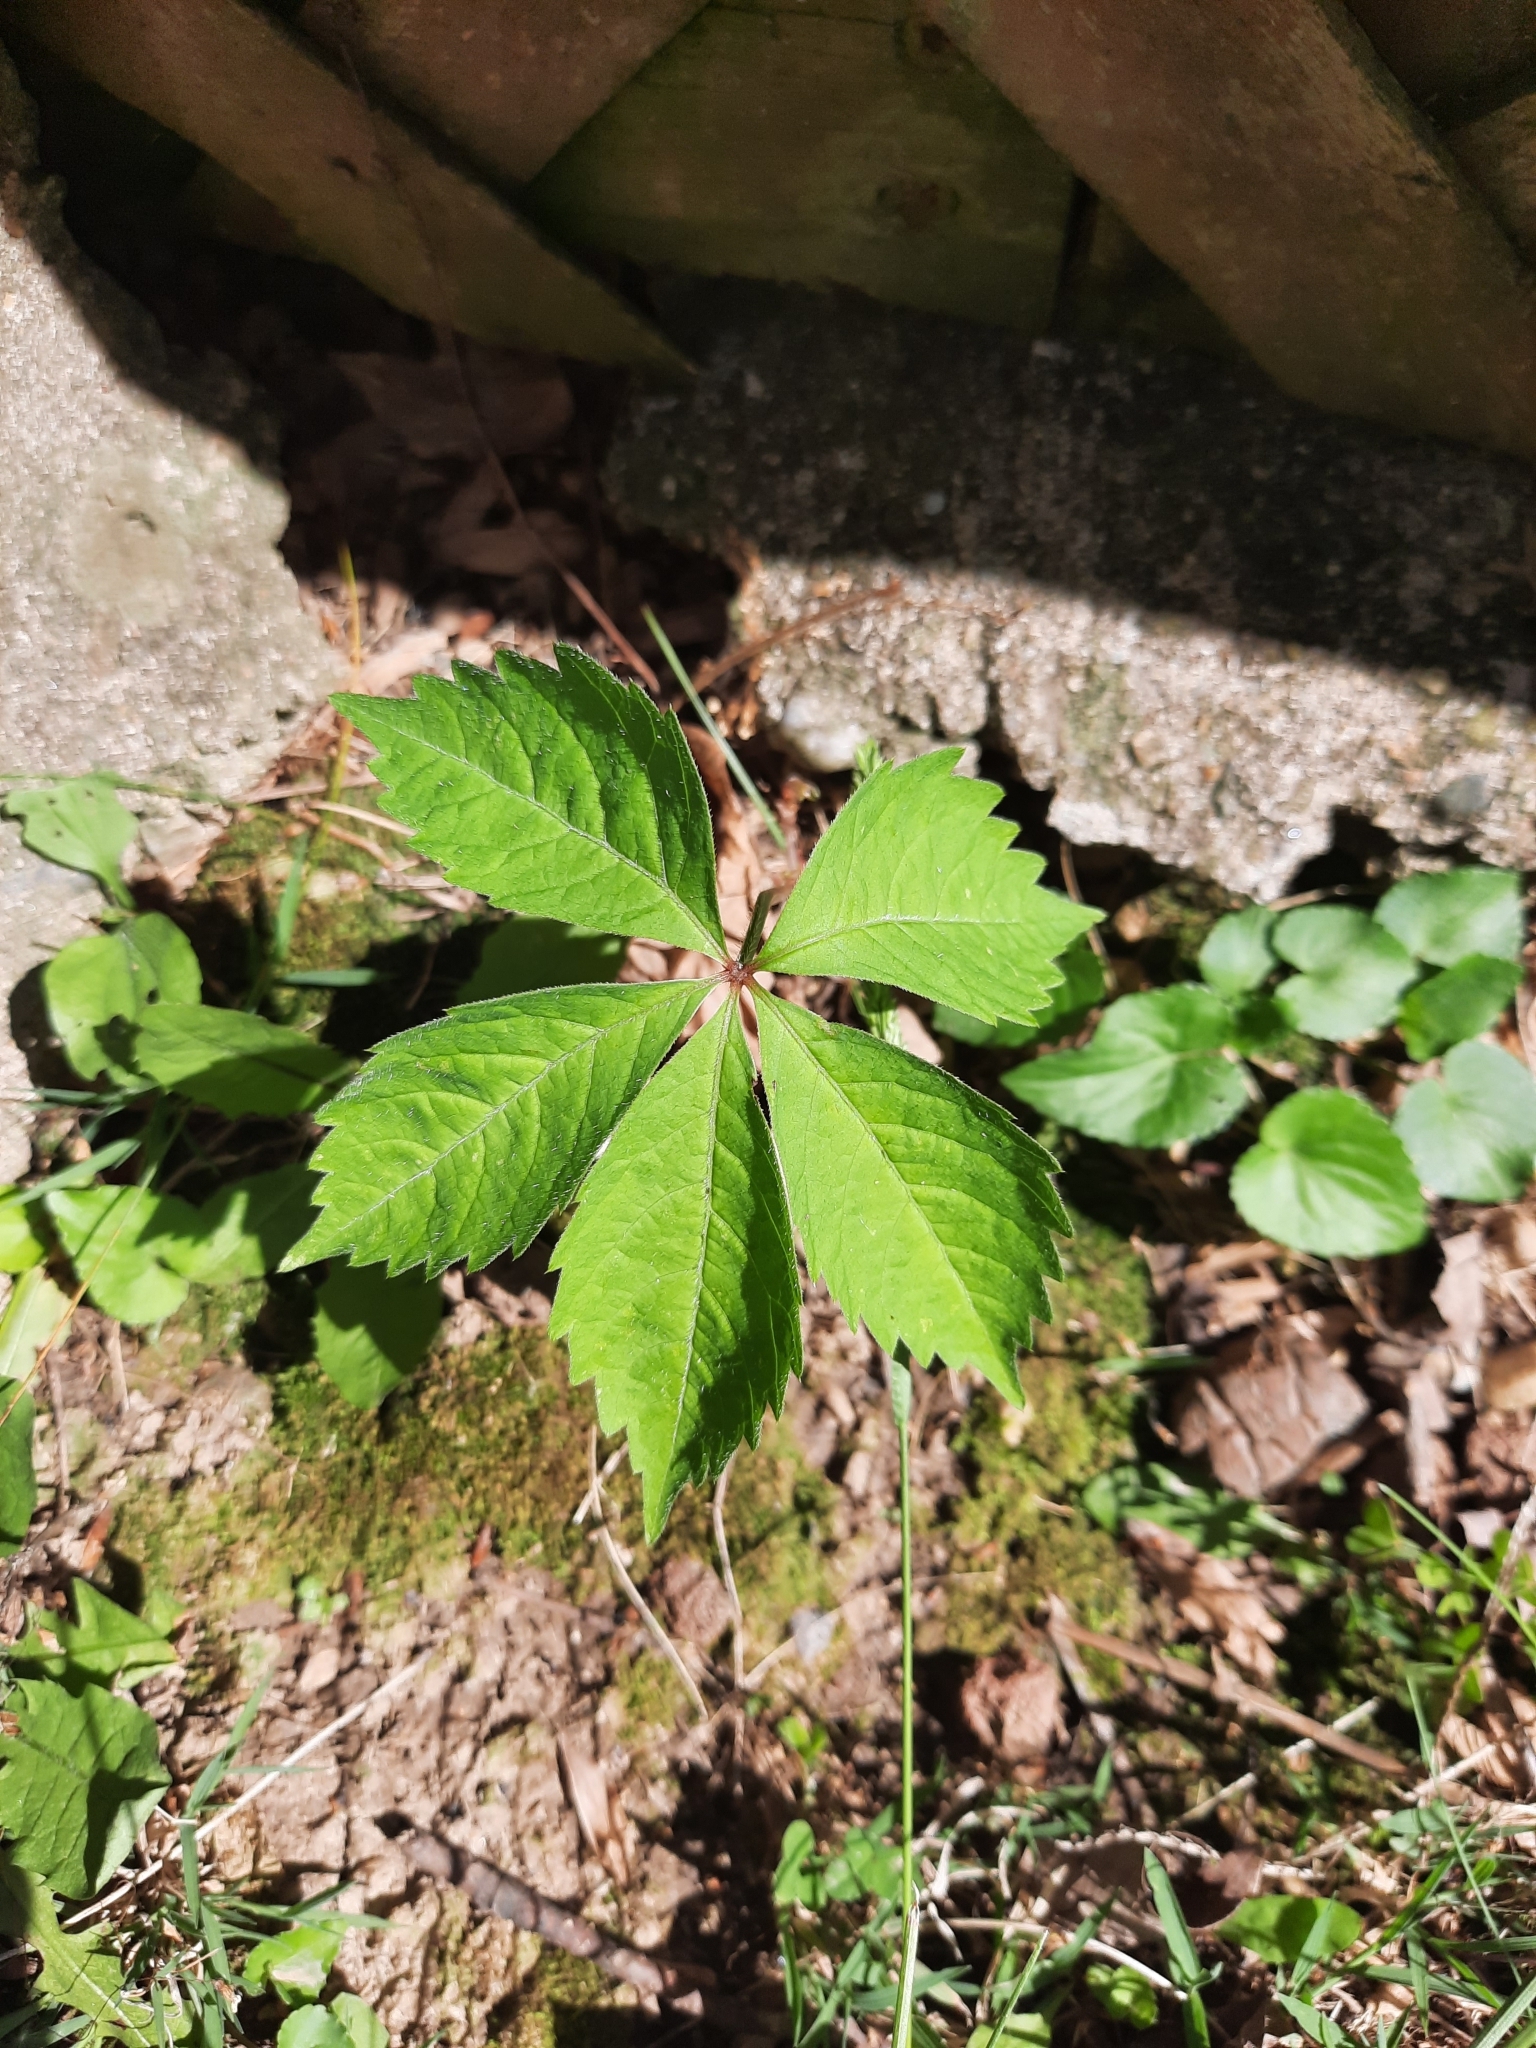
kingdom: Plantae
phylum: Tracheophyta
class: Magnoliopsida
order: Vitales
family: Vitaceae
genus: Parthenocissus
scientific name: Parthenocissus quinquefolia
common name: Virginia-creeper
